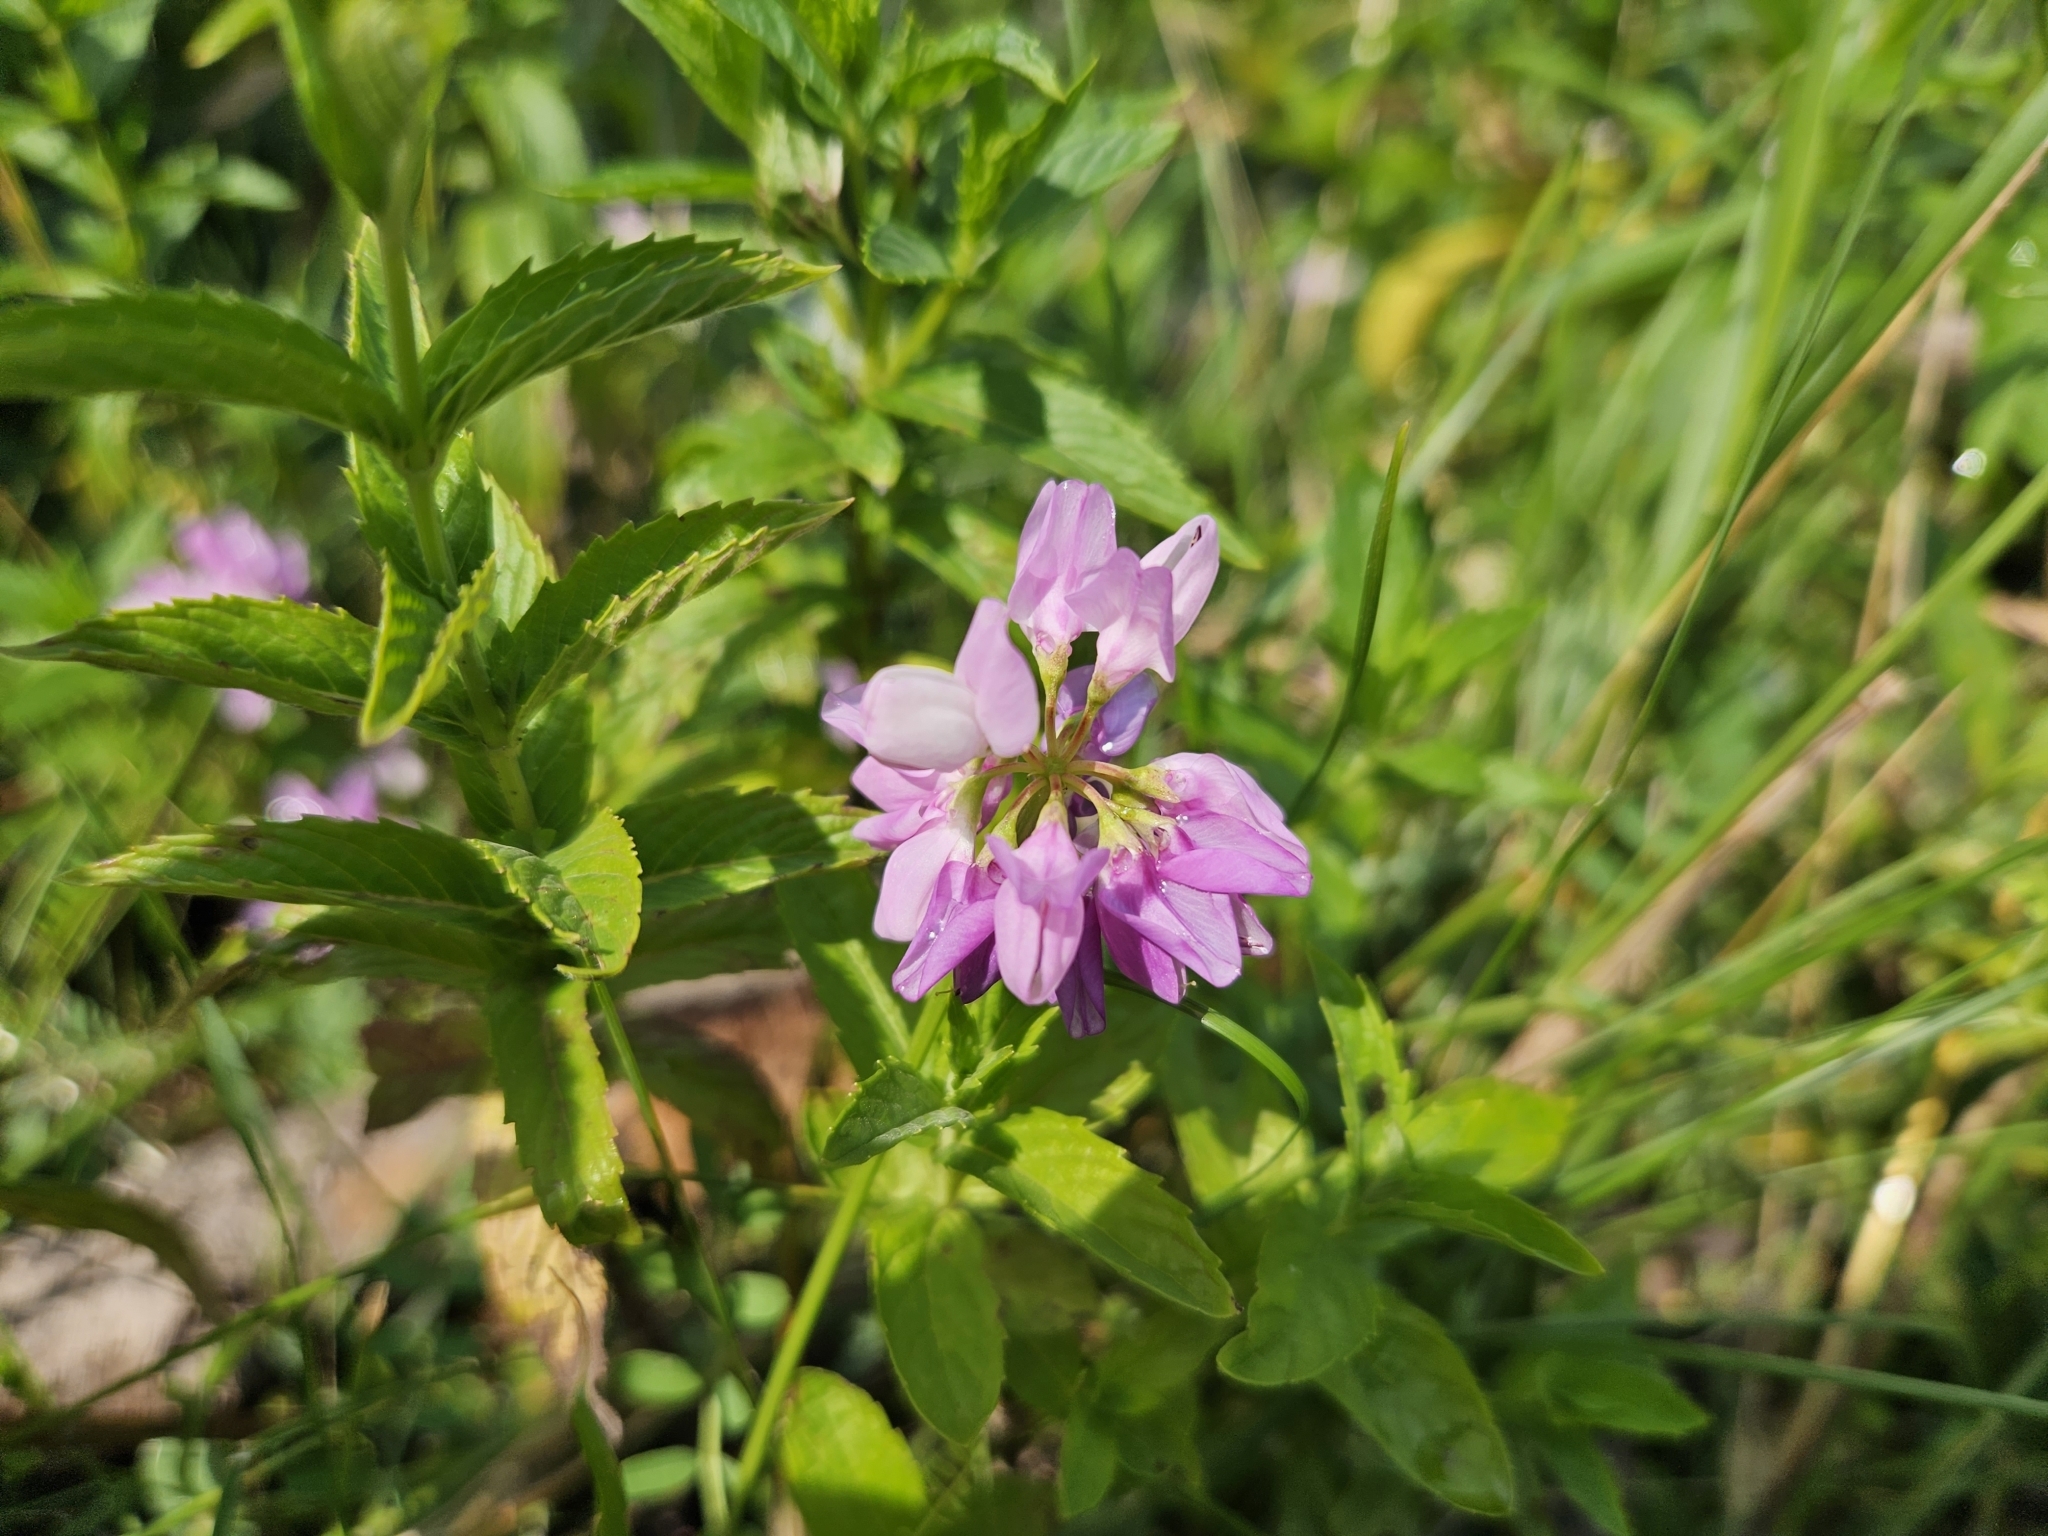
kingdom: Plantae
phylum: Tracheophyta
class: Magnoliopsida
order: Fabales
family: Fabaceae
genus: Coronilla
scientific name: Coronilla varia
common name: Crownvetch
